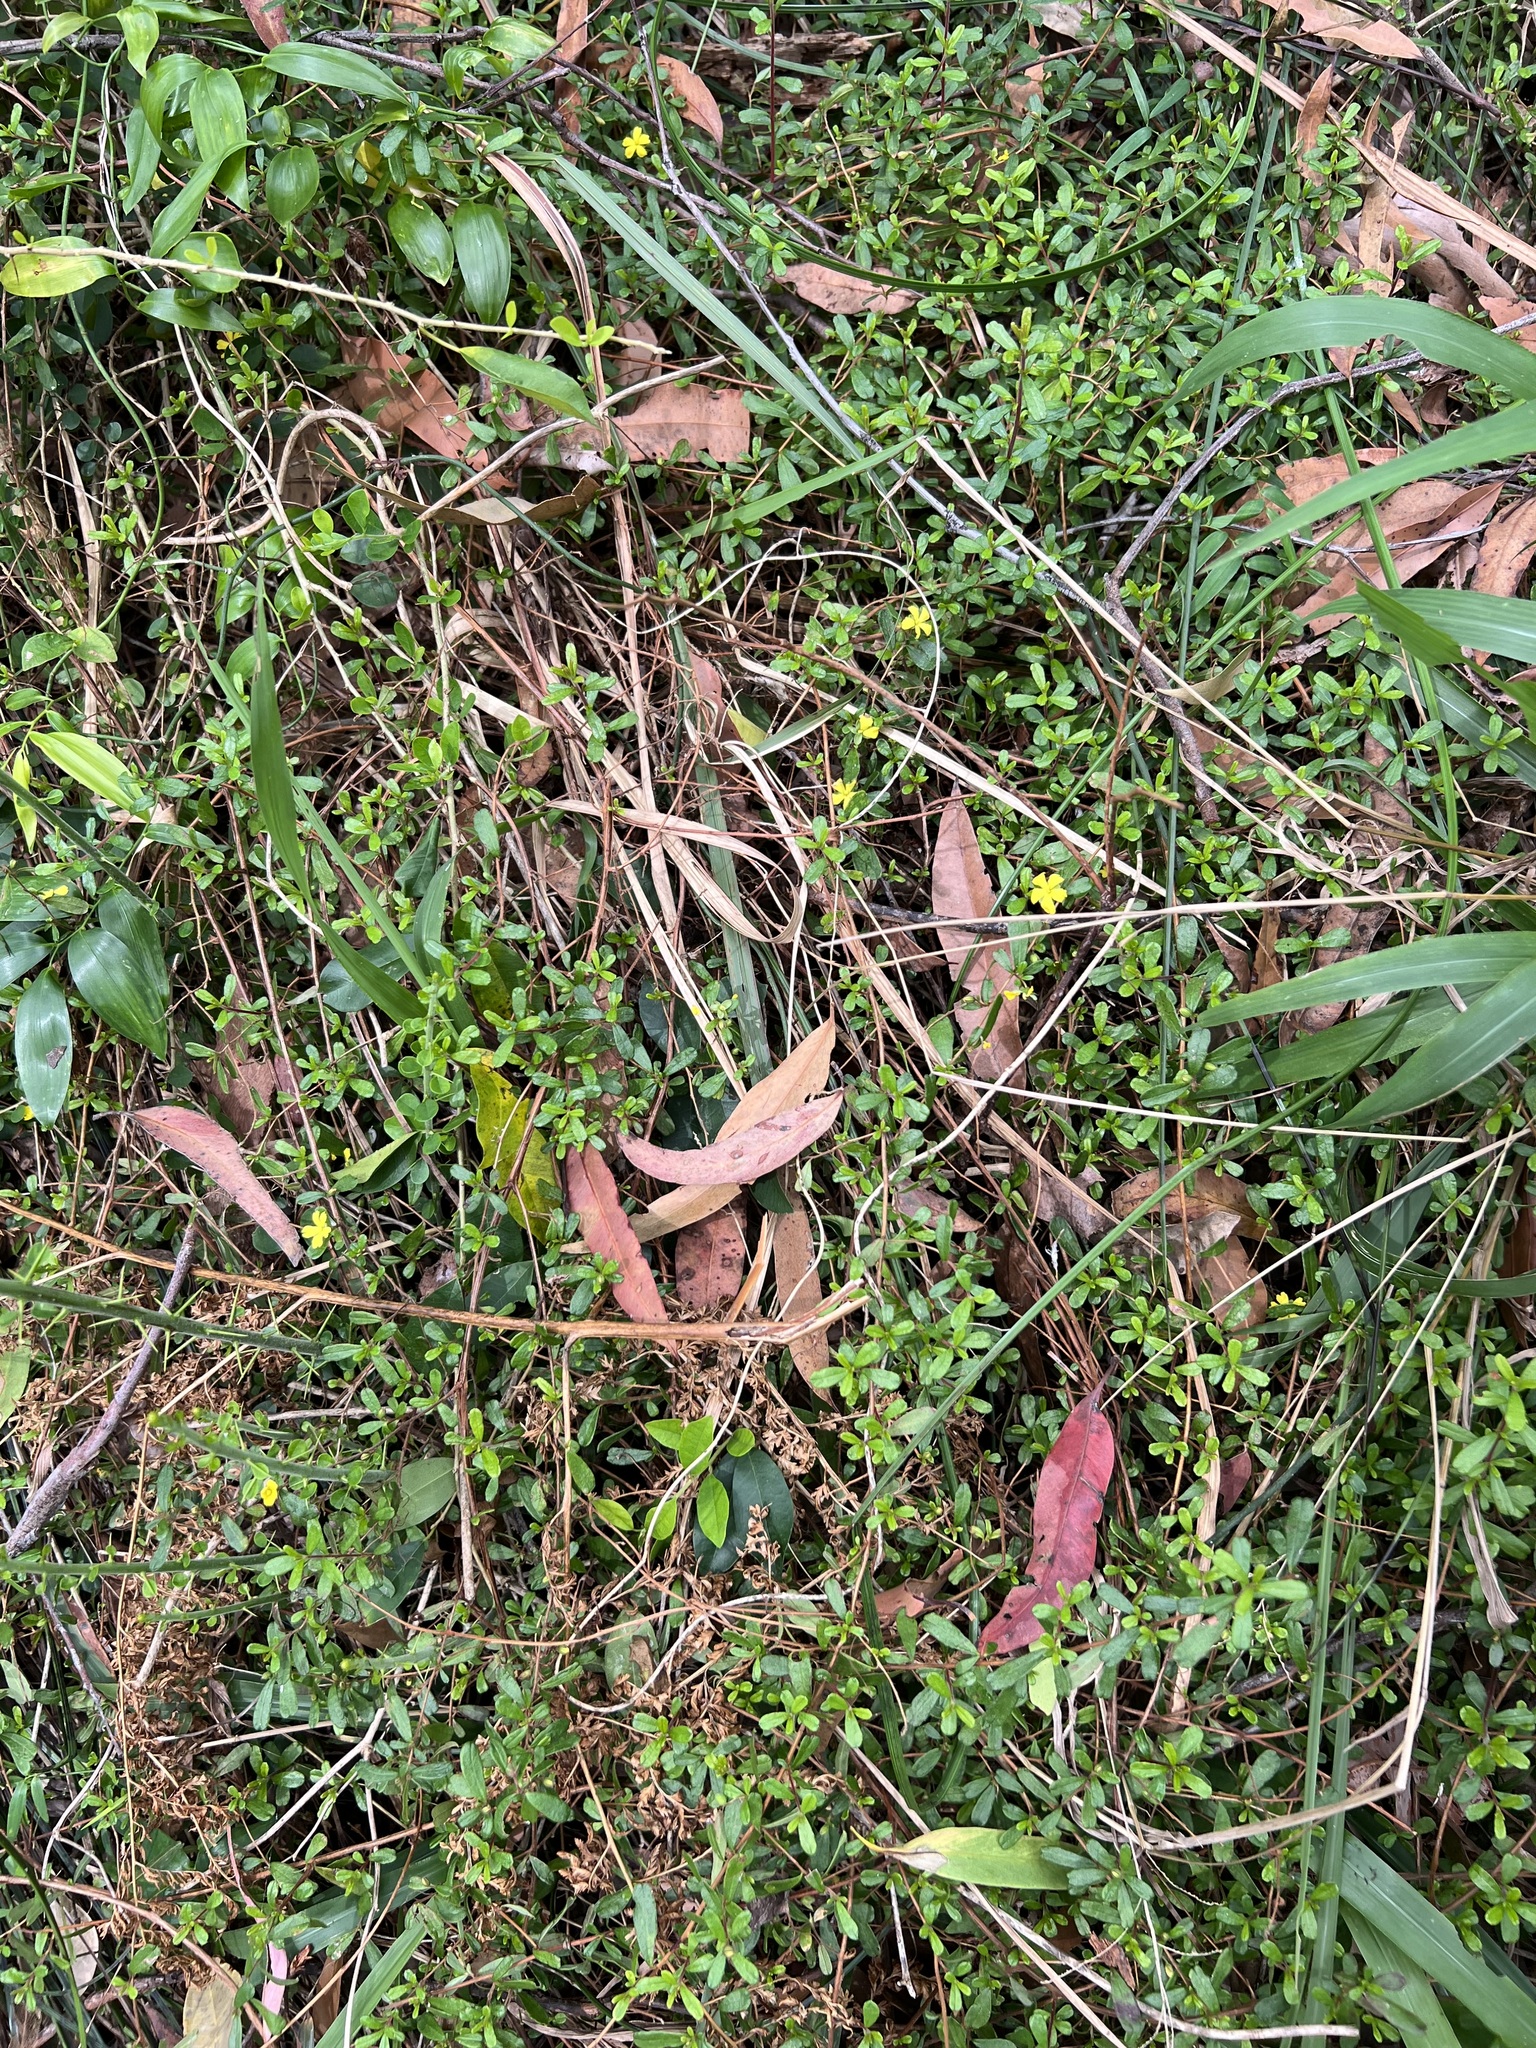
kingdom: Plantae
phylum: Tracheophyta
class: Magnoliopsida
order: Dilleniales
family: Dilleniaceae
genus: Hibbertia
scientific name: Hibbertia aspera
